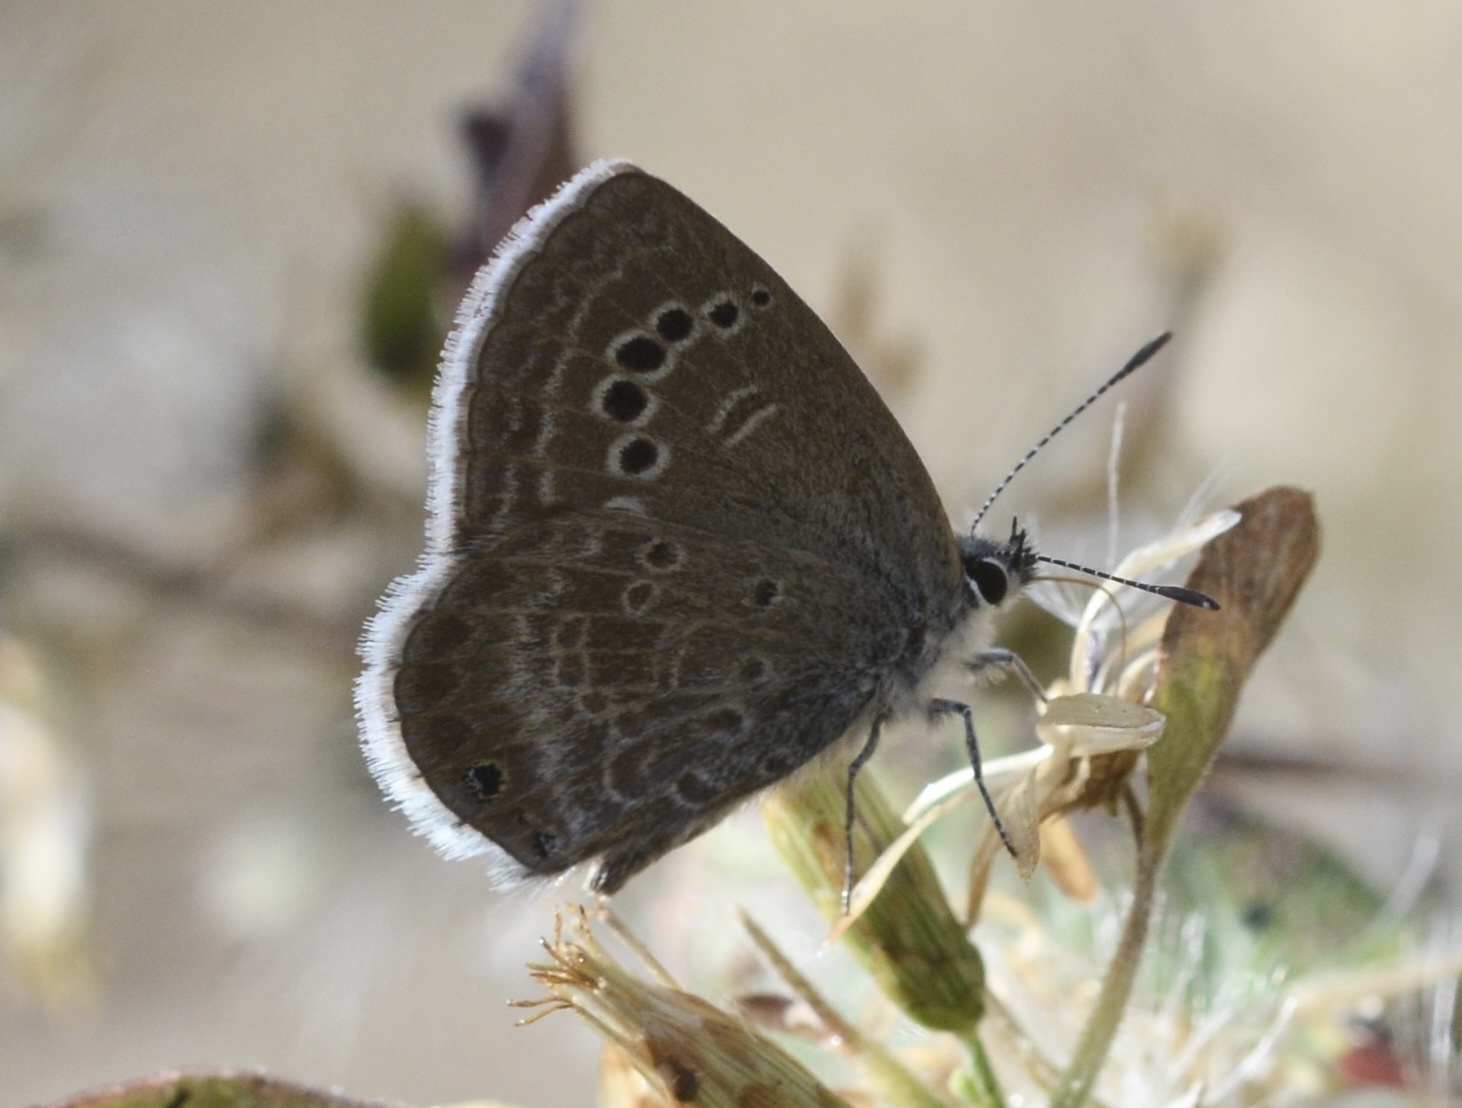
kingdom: Animalia
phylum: Arthropoda
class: Insecta
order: Lepidoptera
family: Lycaenidae
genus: Echinargus
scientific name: Echinargus isola
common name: Reakirt's blue
